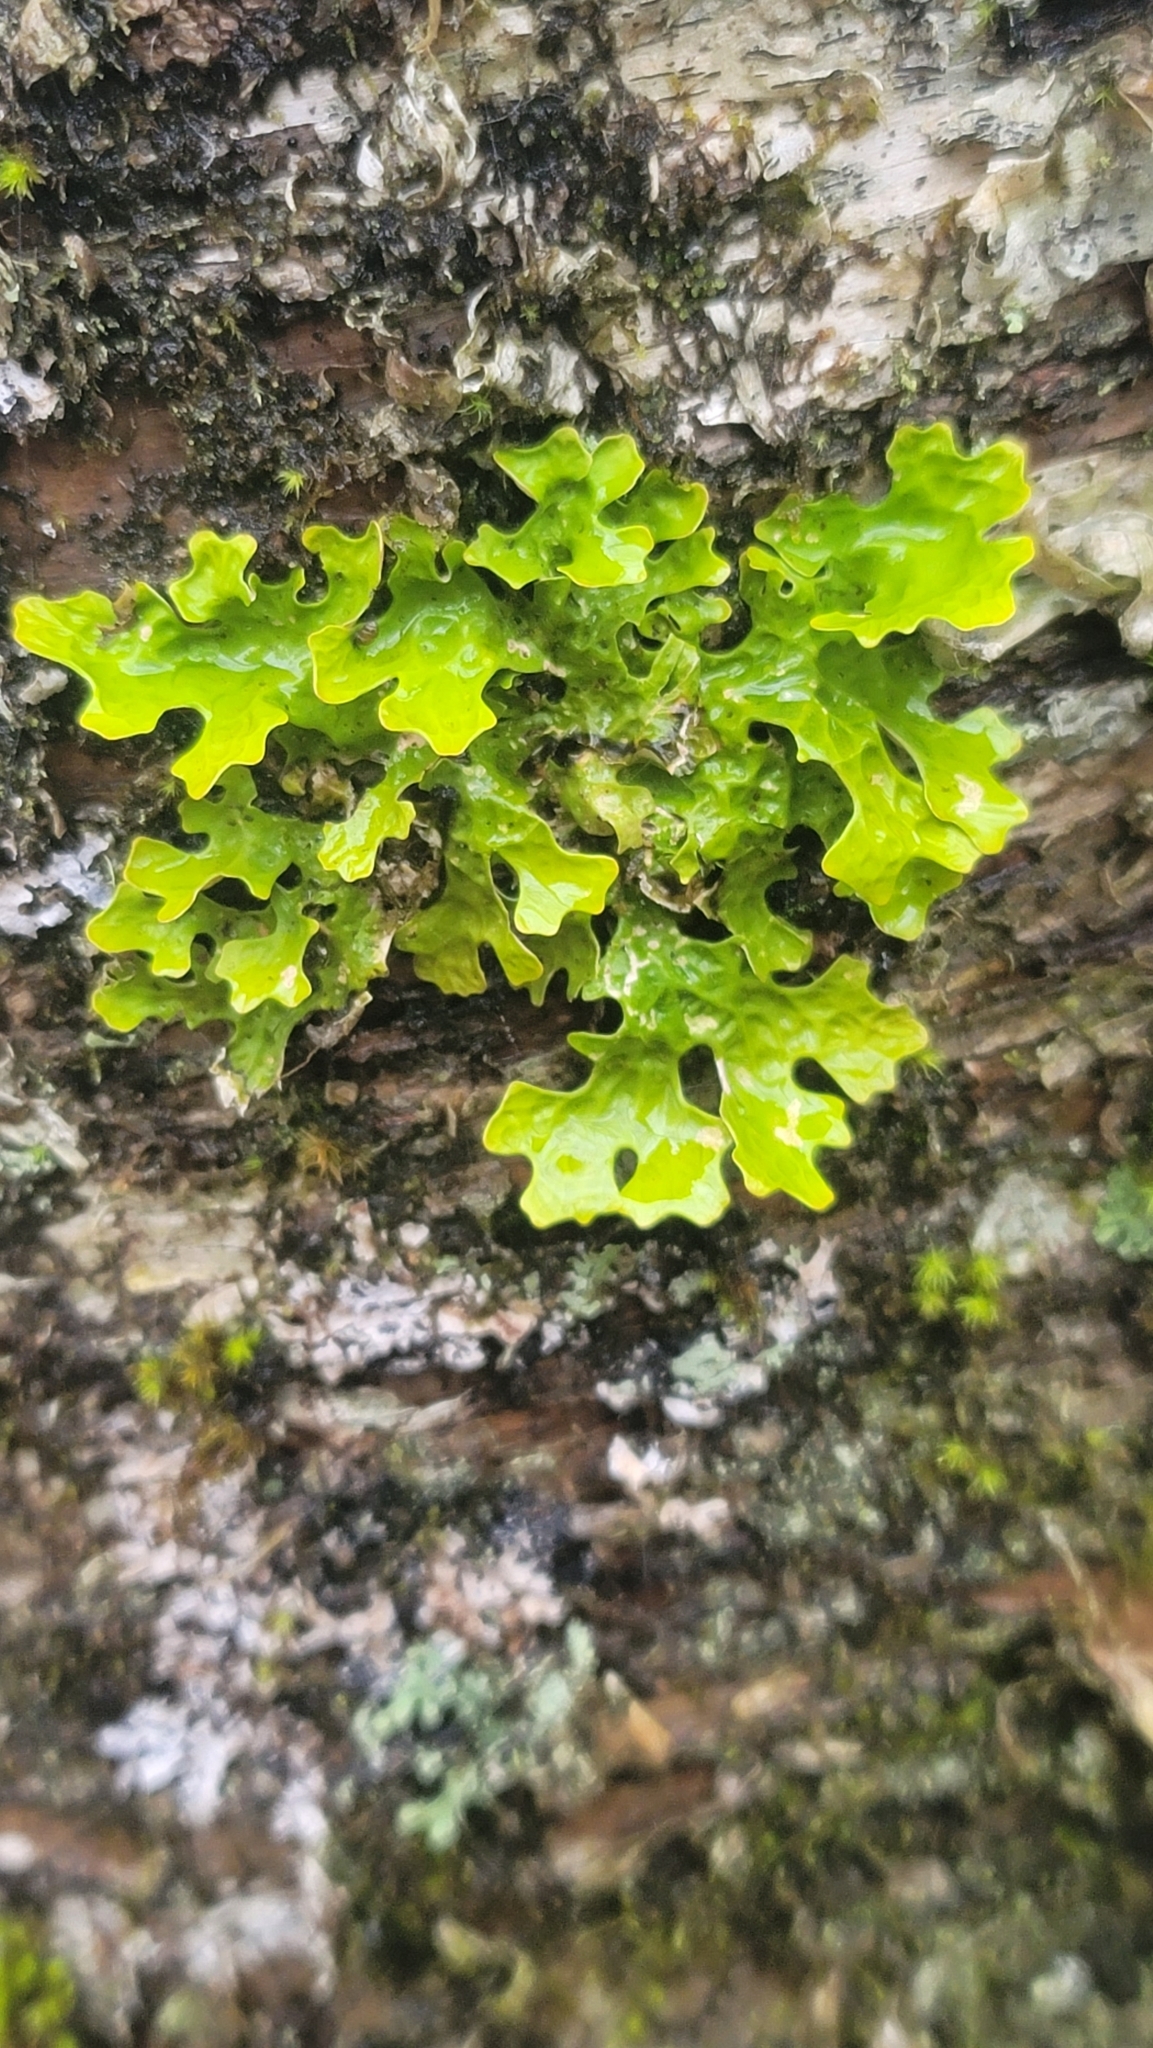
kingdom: Fungi
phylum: Ascomycota
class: Lecanoromycetes
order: Peltigerales
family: Lobariaceae
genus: Lobaria
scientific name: Lobaria pulmonaria
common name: Lungwort
